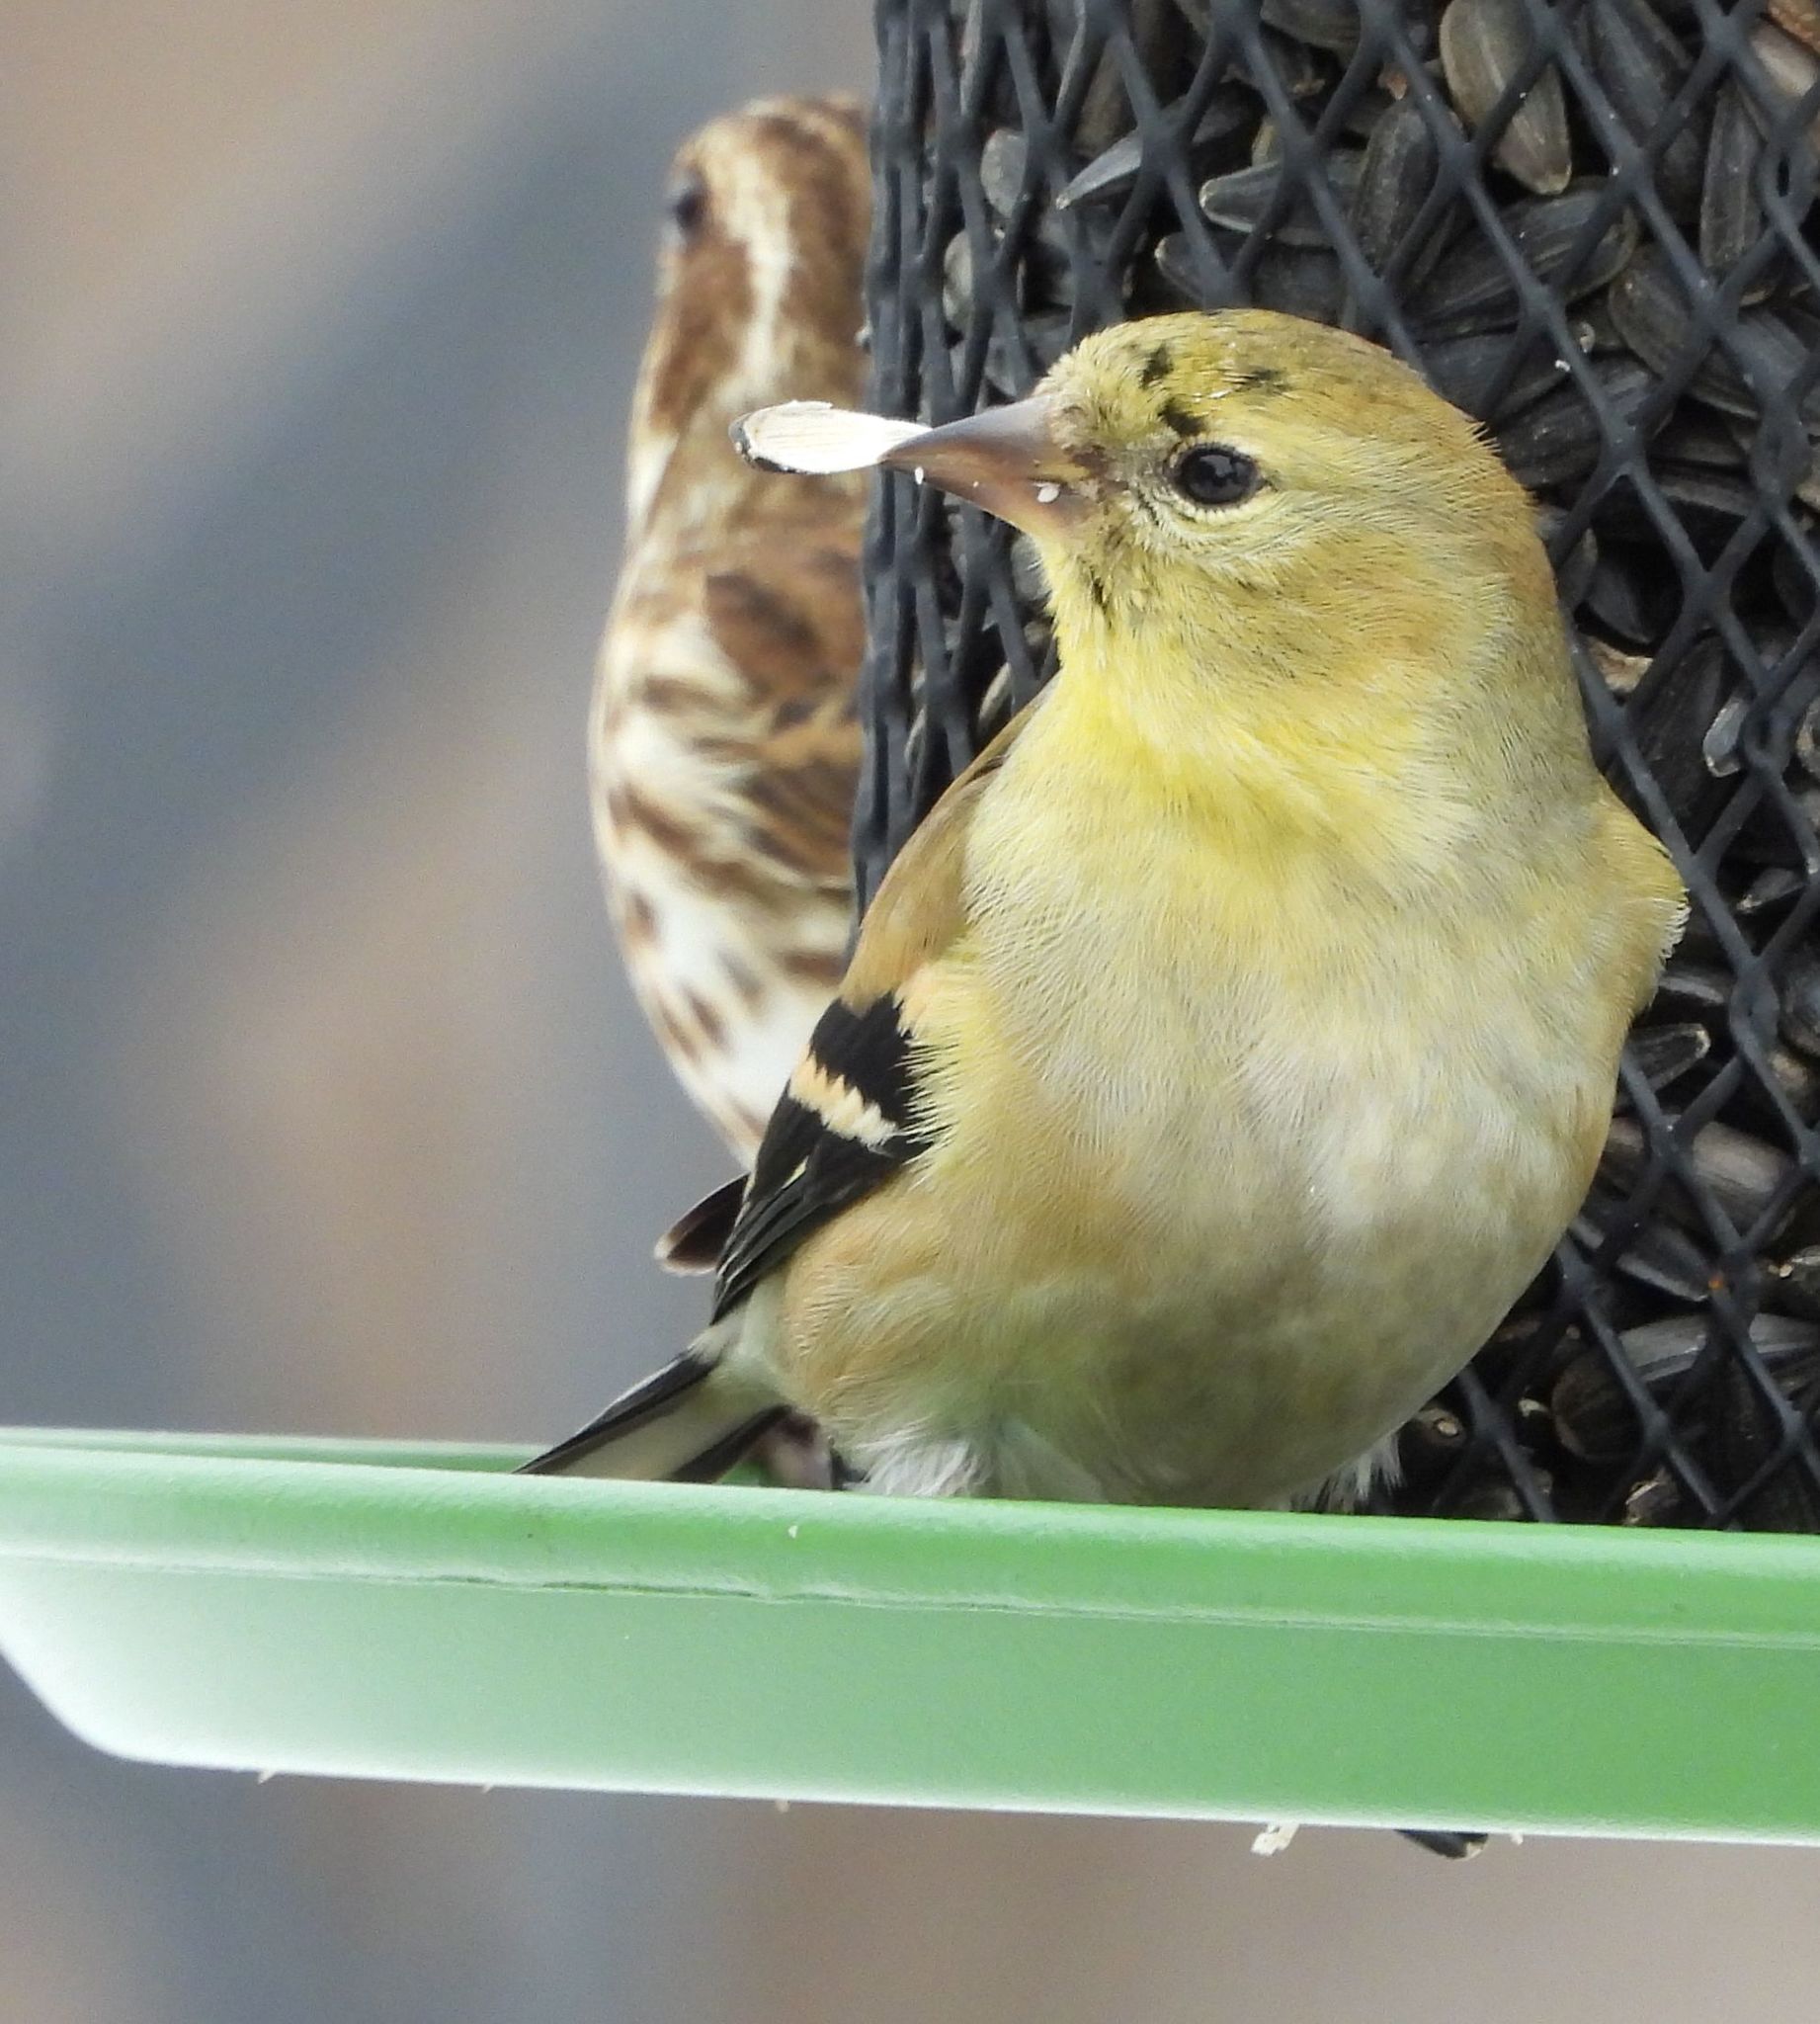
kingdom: Animalia
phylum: Chordata
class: Aves
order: Passeriformes
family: Fringillidae
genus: Spinus
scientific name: Spinus tristis
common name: American goldfinch
